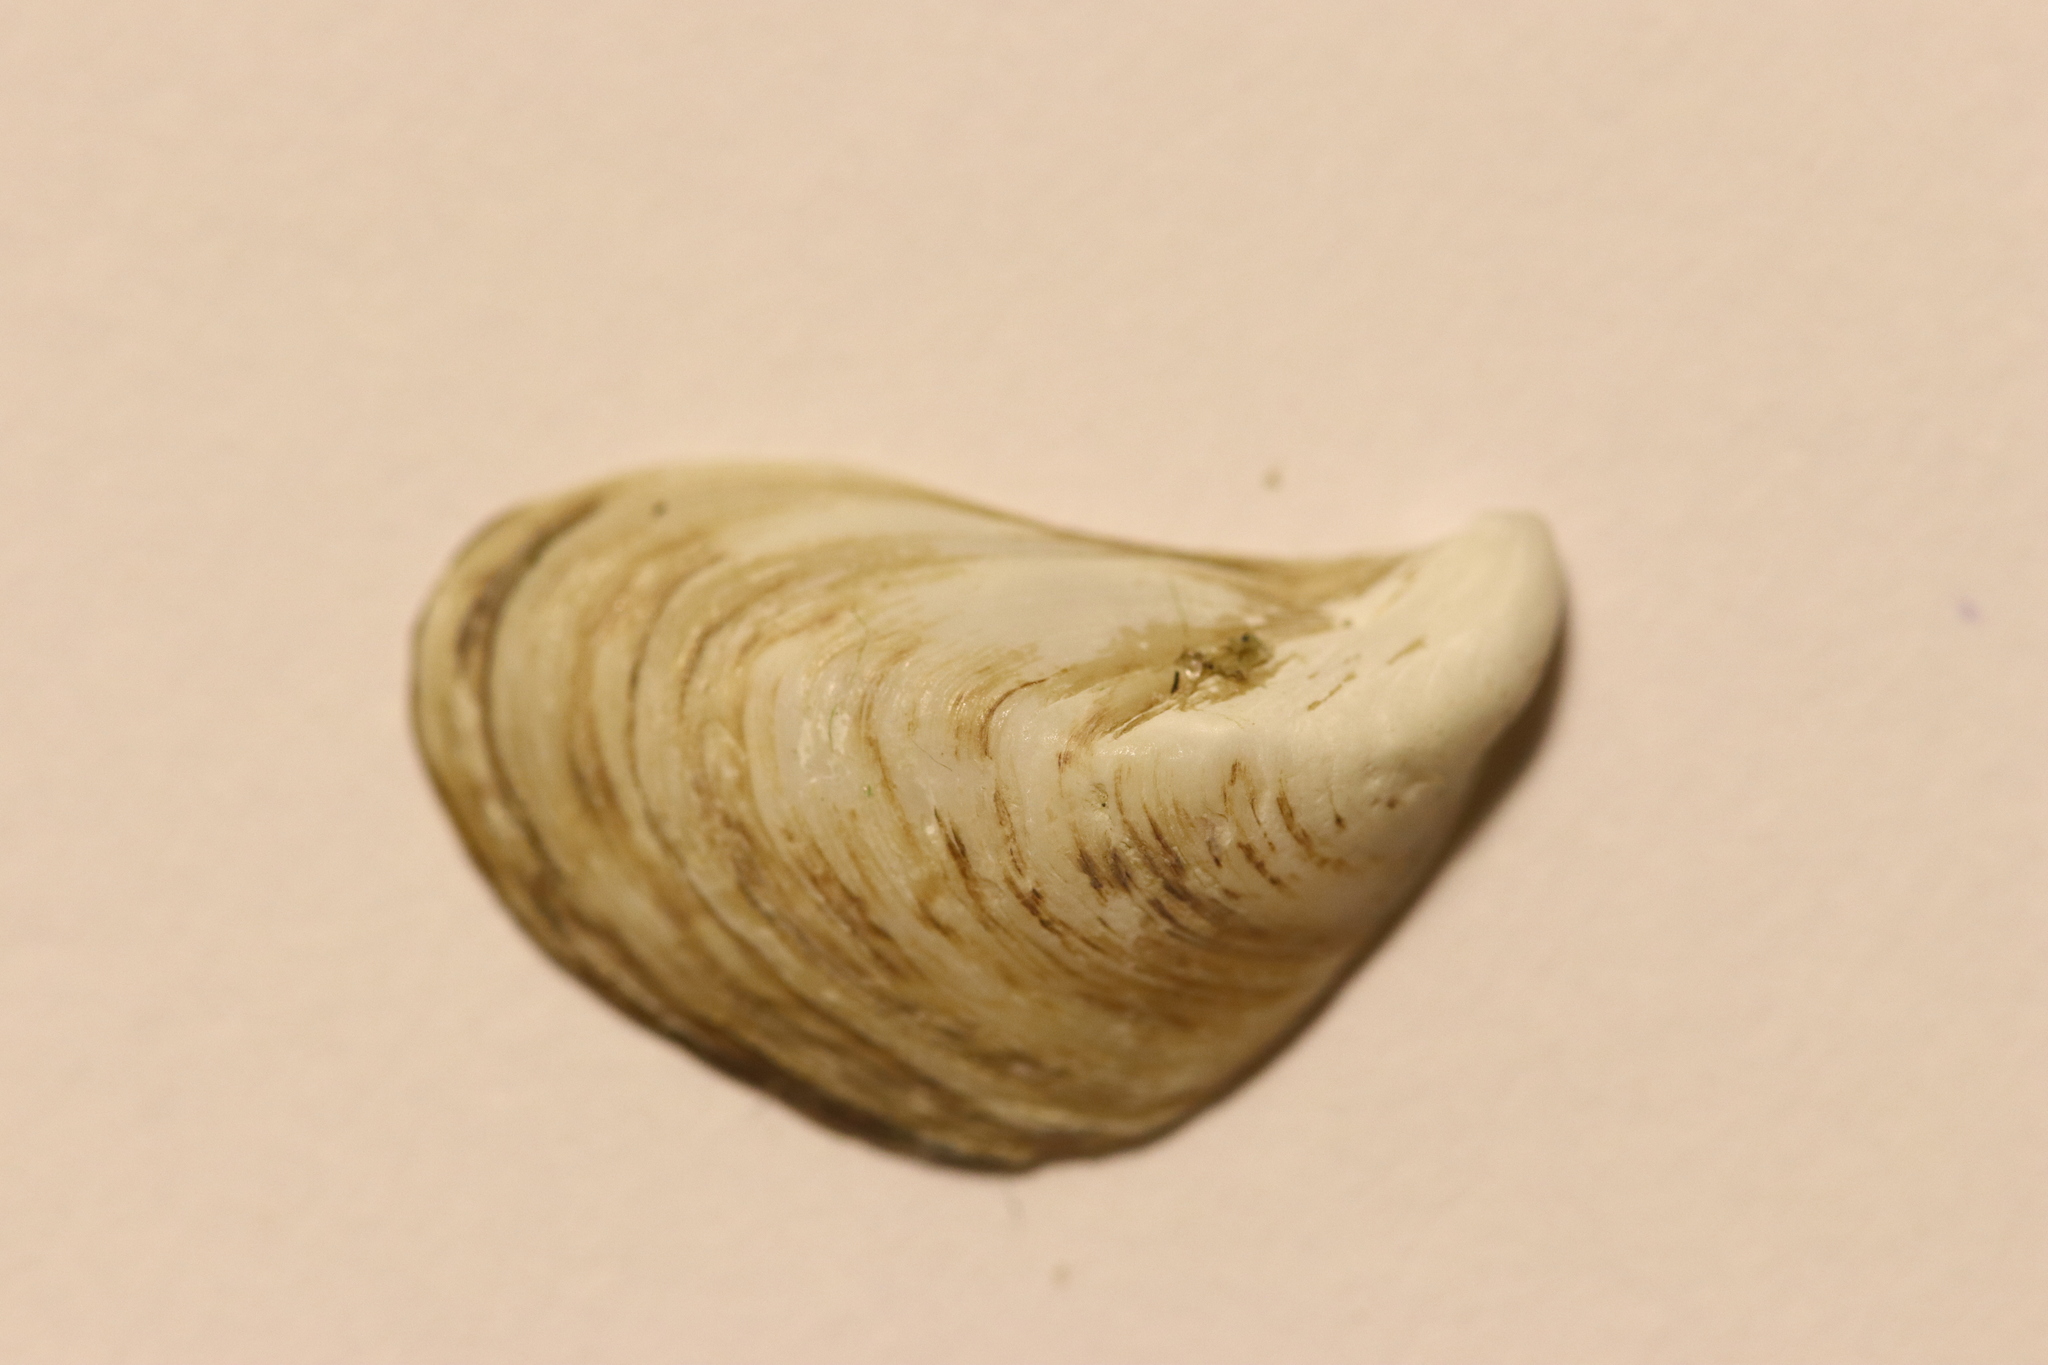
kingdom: Animalia
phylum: Mollusca
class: Bivalvia
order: Myida
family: Dreissenidae
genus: Dreissena
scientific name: Dreissena bugensis
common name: Quagga mussel
